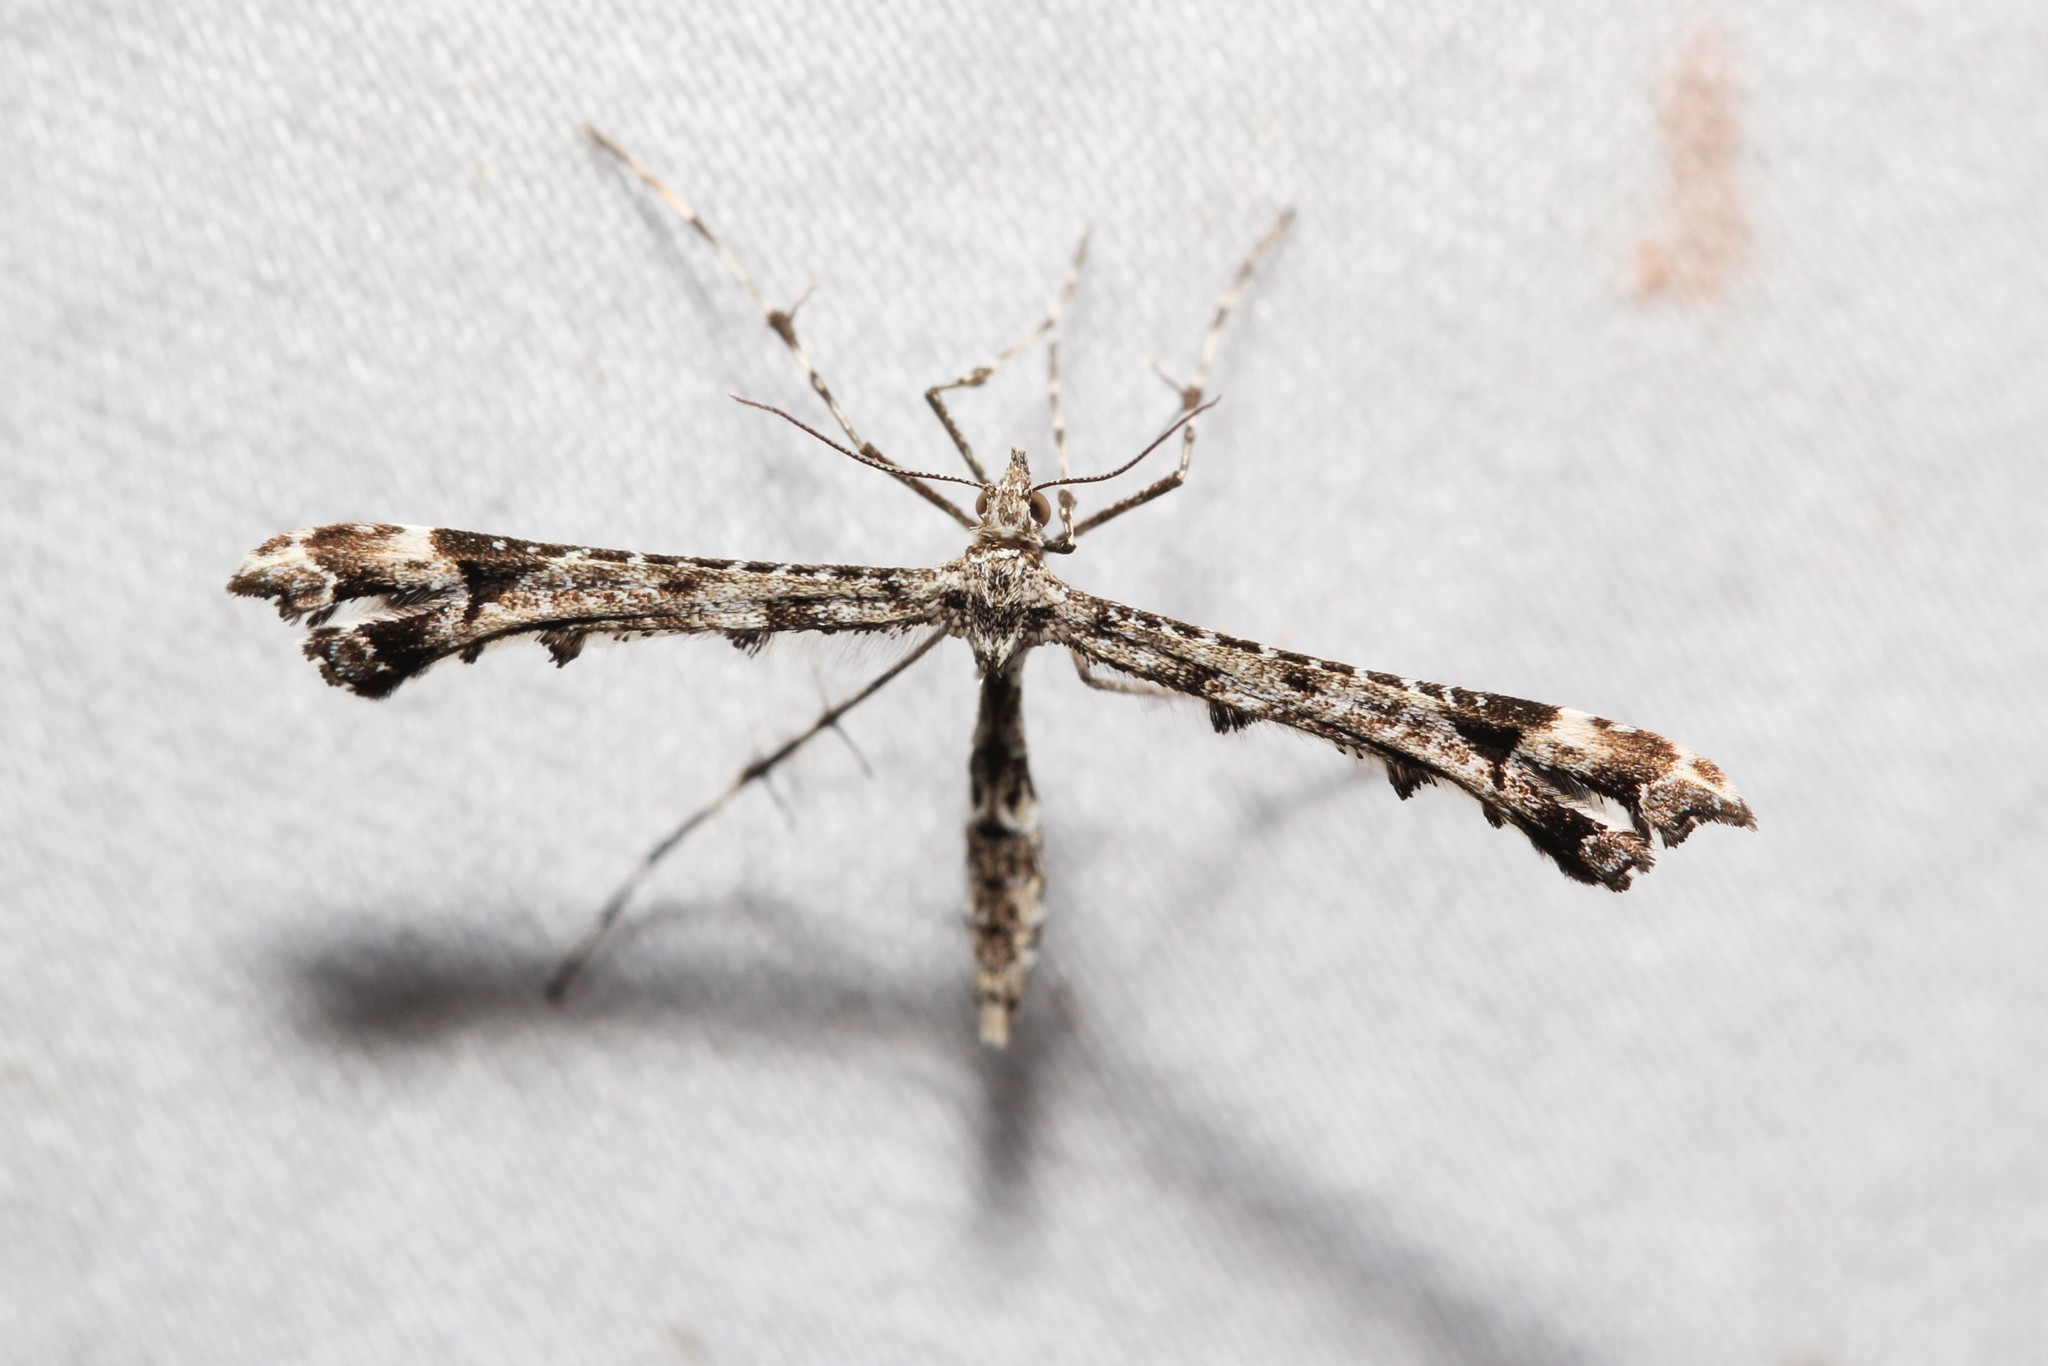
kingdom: Animalia
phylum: Arthropoda
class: Insecta
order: Lepidoptera
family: Pterophoridae
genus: Amblyptilia
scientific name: Amblyptilia pica
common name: Geranium plume moth
